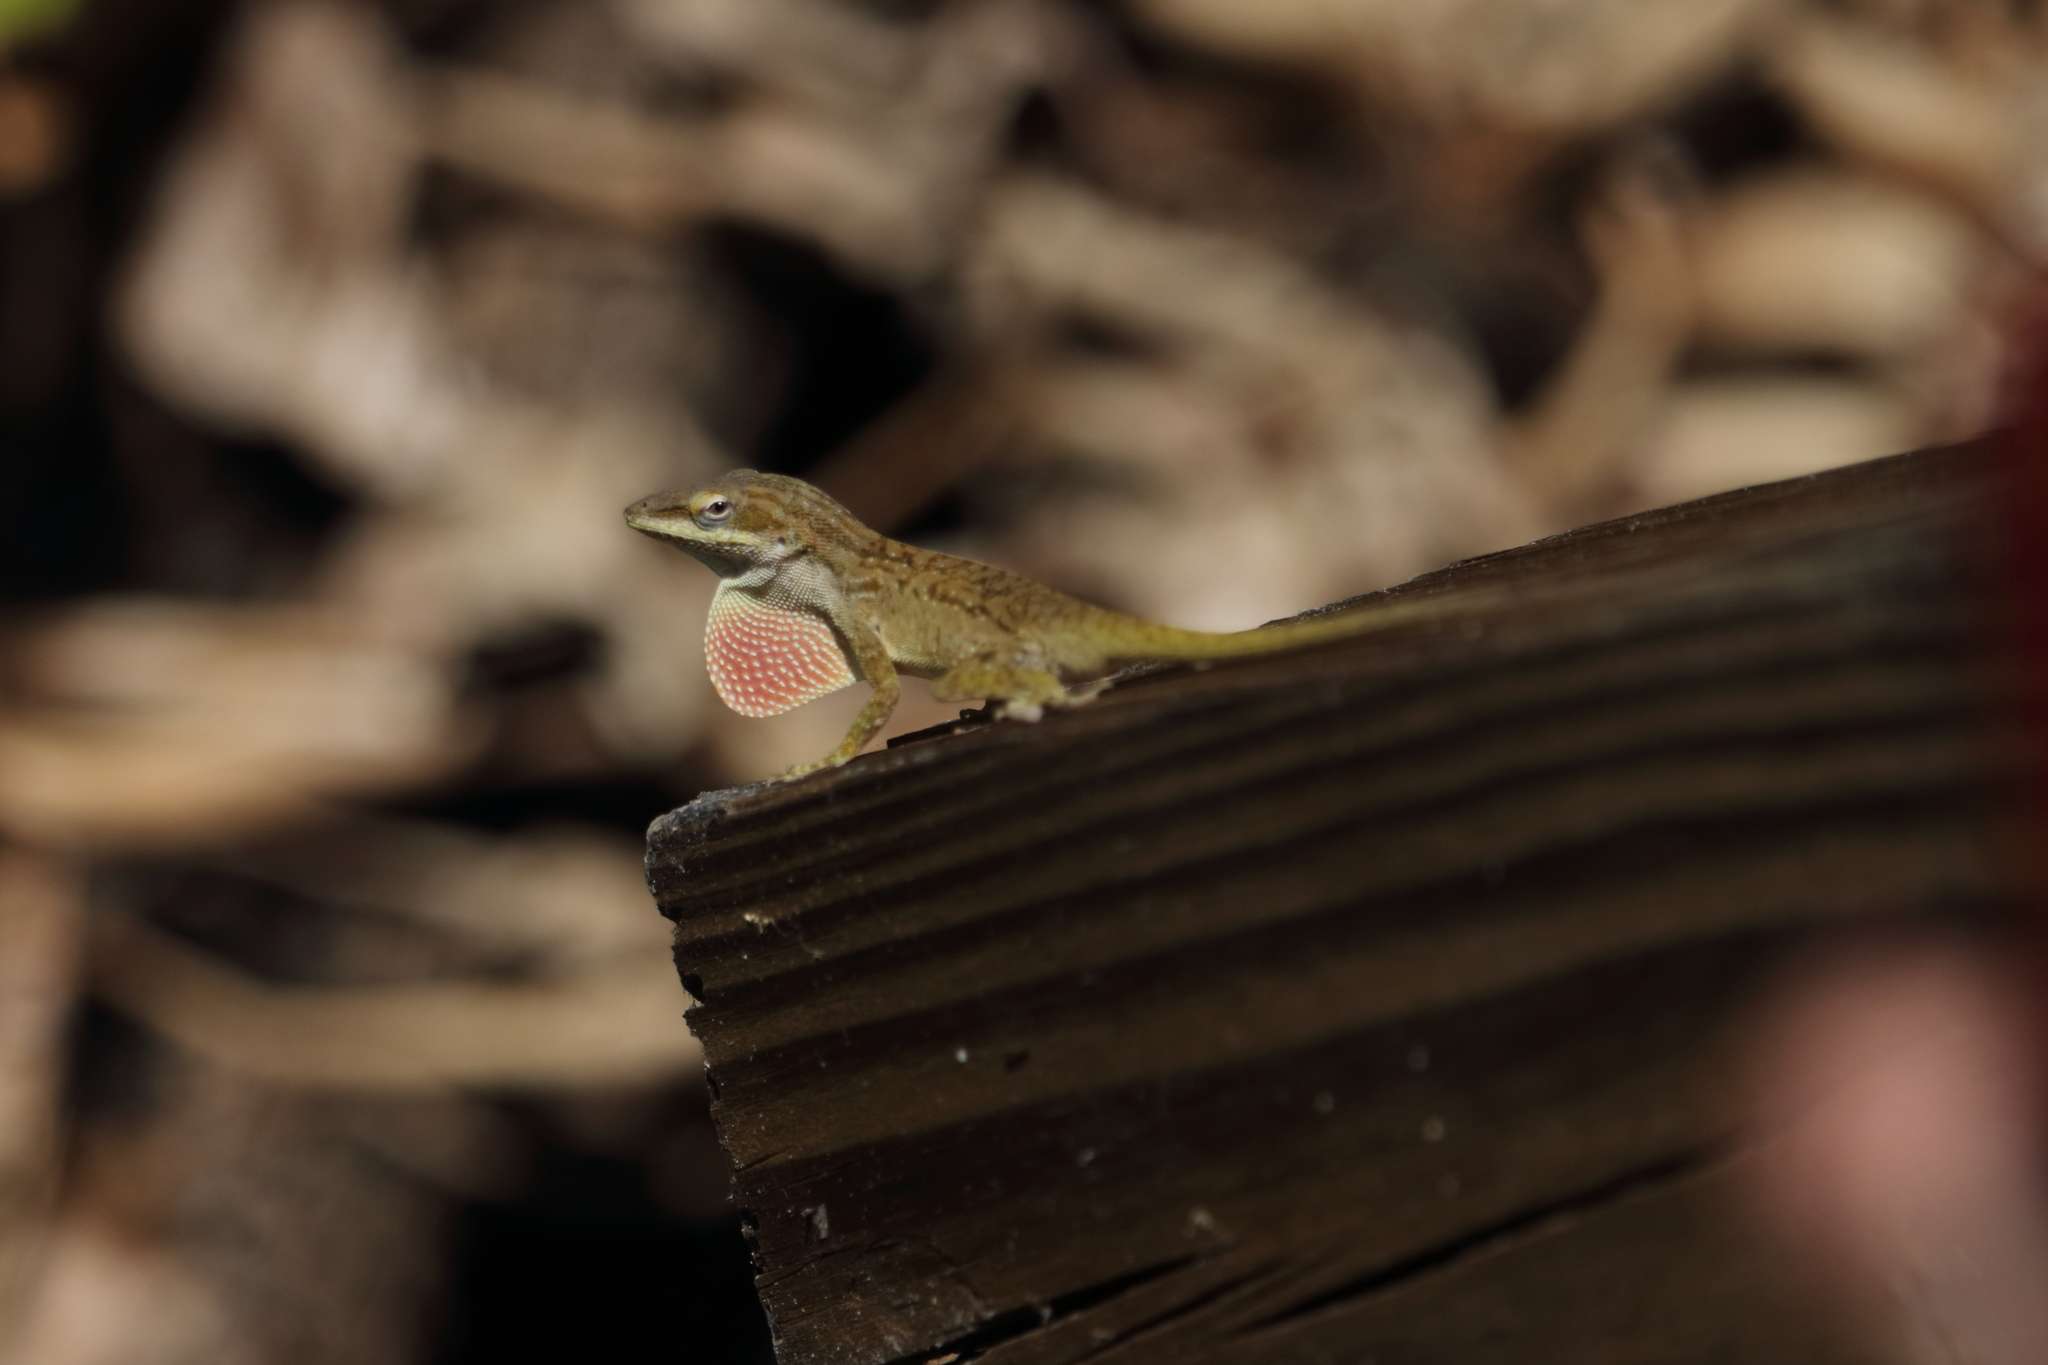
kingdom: Animalia
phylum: Chordata
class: Squamata
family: Dactyloidae
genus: Anolis
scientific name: Anolis carolinensis
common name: Green anole
